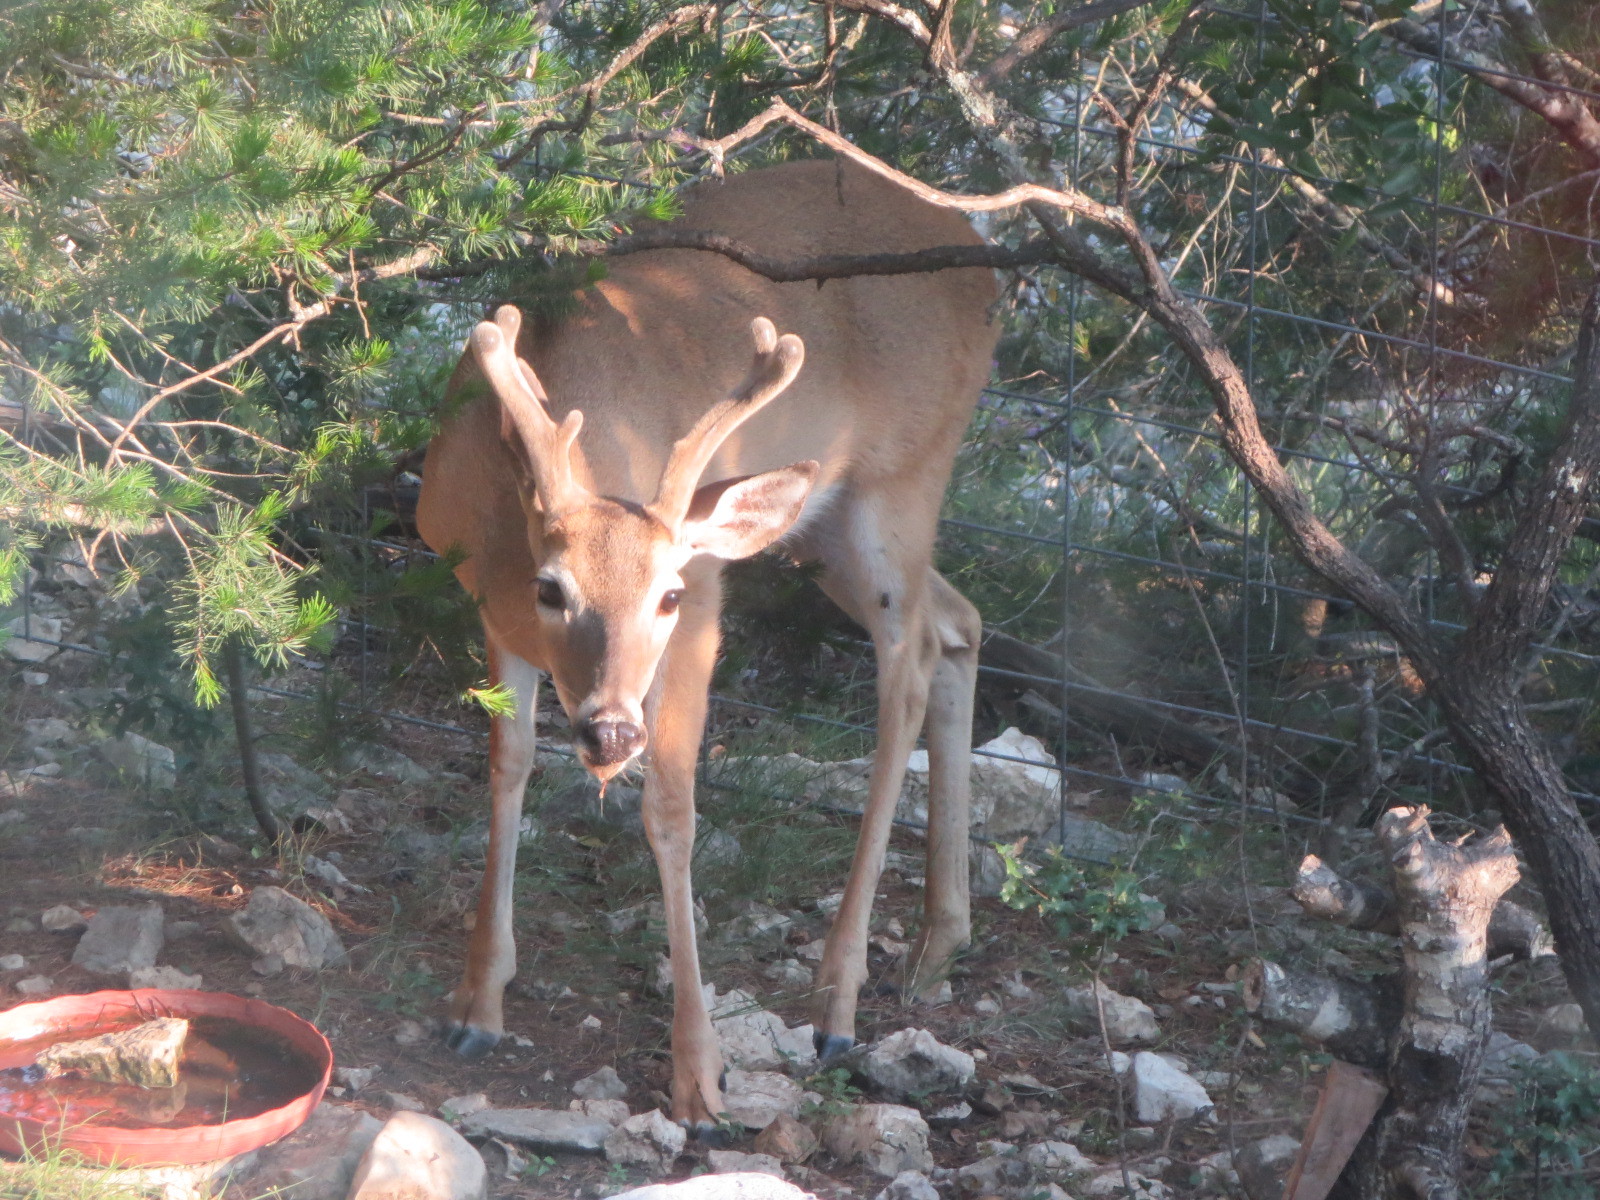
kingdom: Animalia
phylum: Chordata
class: Mammalia
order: Artiodactyla
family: Cervidae
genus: Odocoileus
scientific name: Odocoileus virginianus
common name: White-tailed deer
